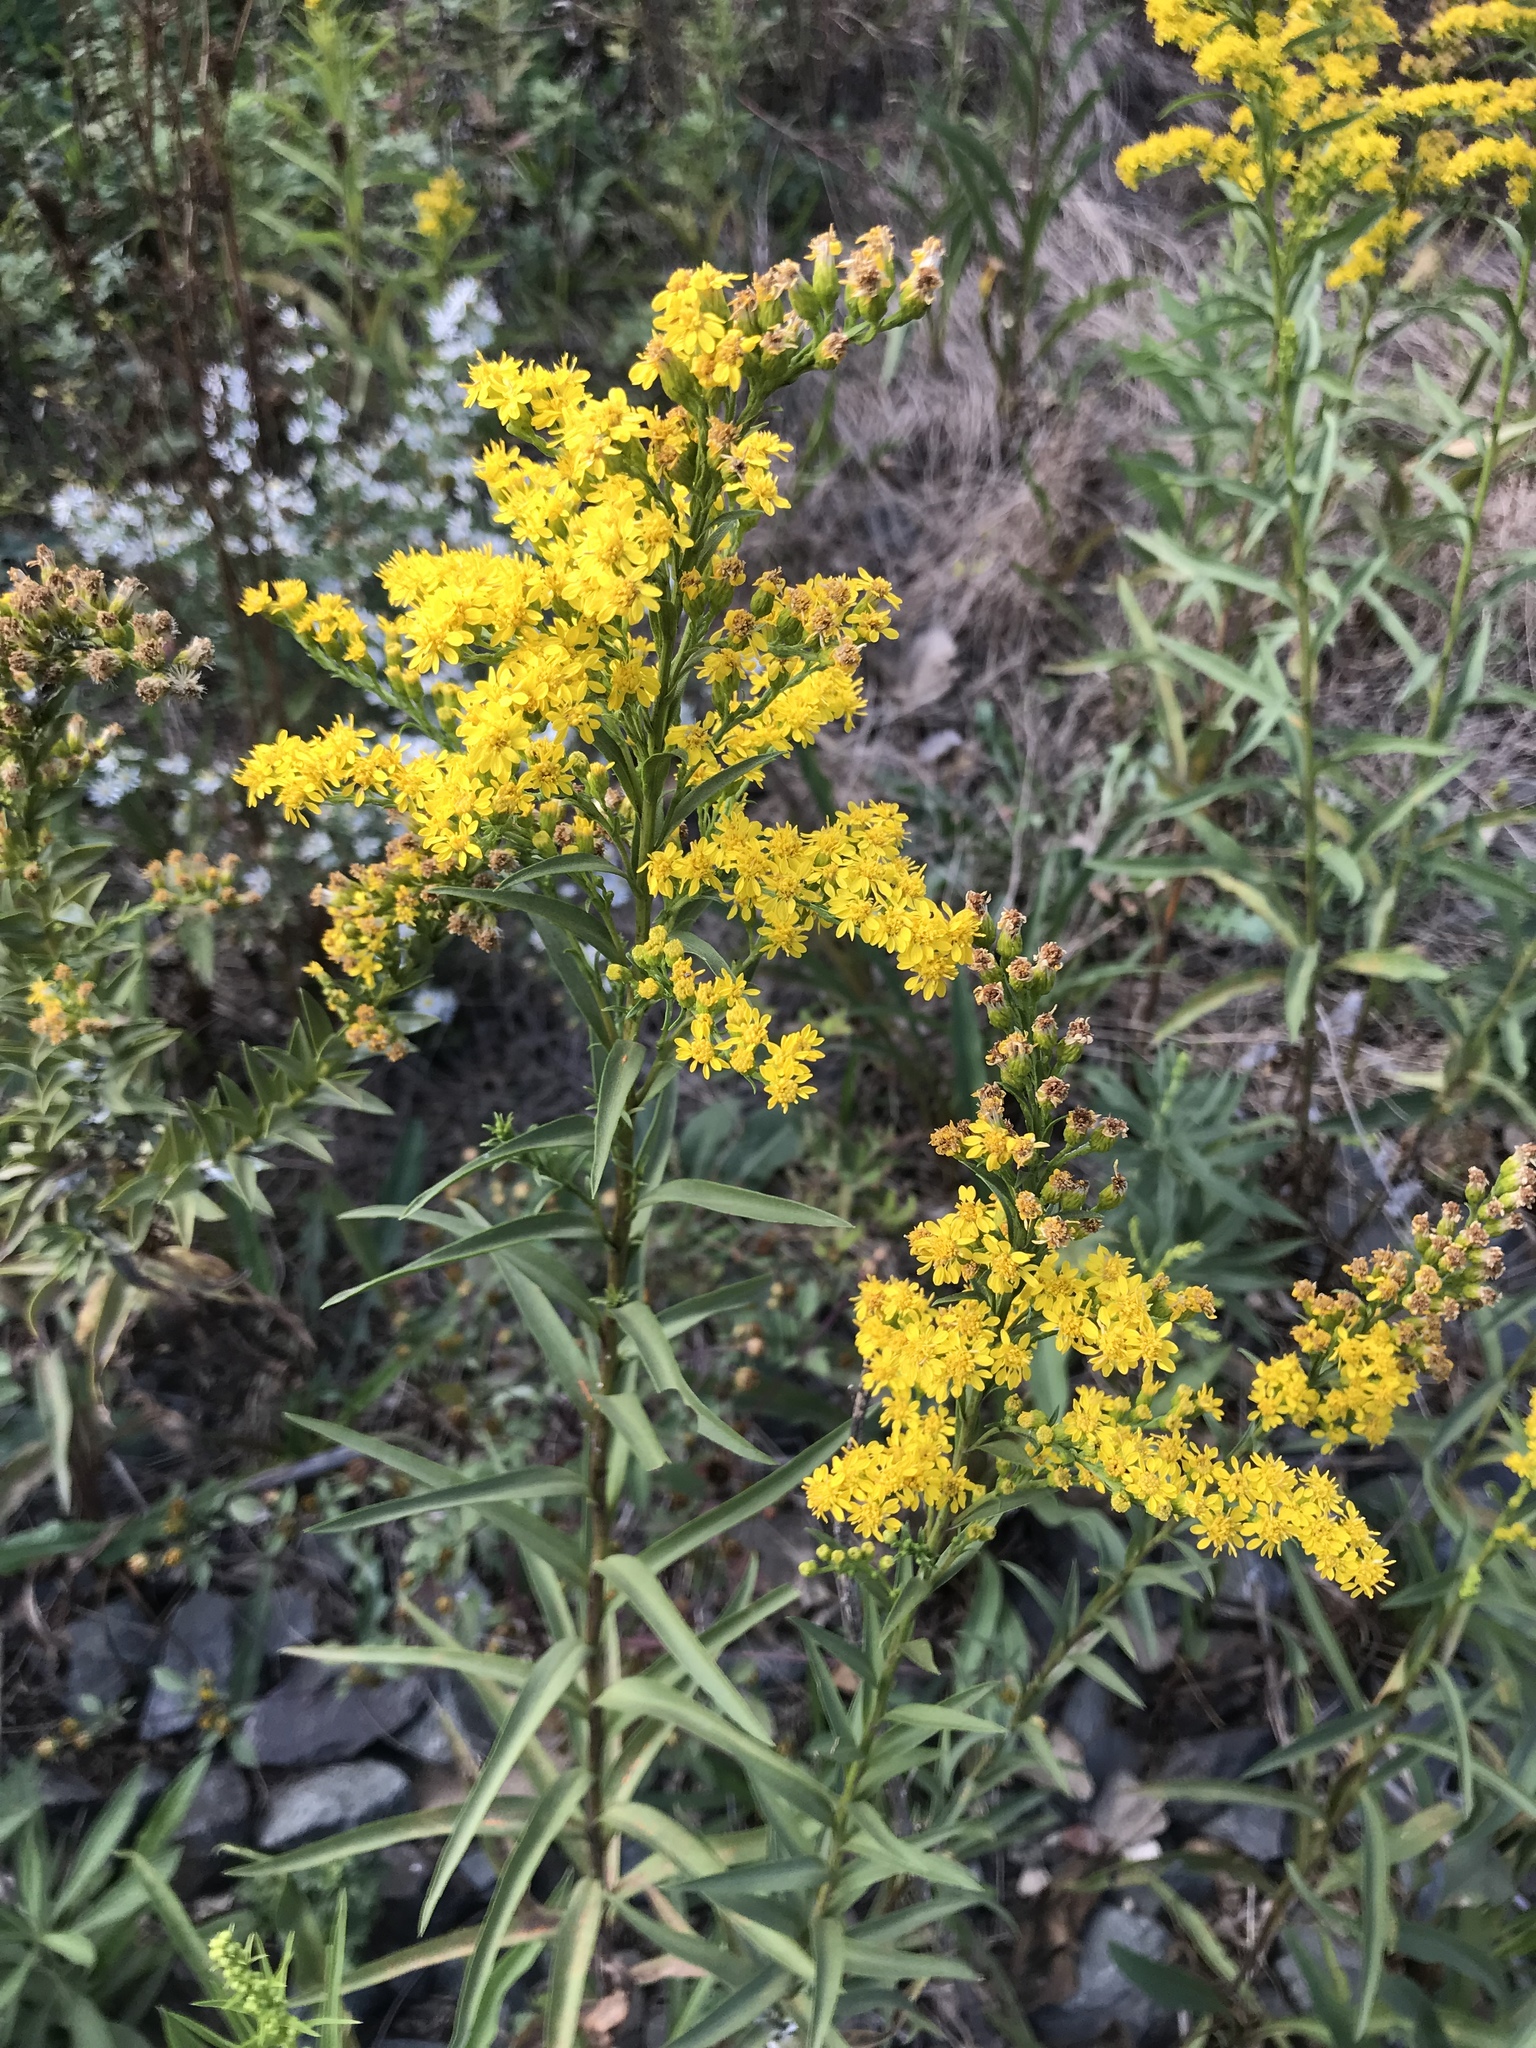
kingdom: Plantae
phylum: Tracheophyta
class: Magnoliopsida
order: Asterales
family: Asteraceae
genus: Solidago
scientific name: Solidago sempervirens
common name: Salt-marsh goldenrod
